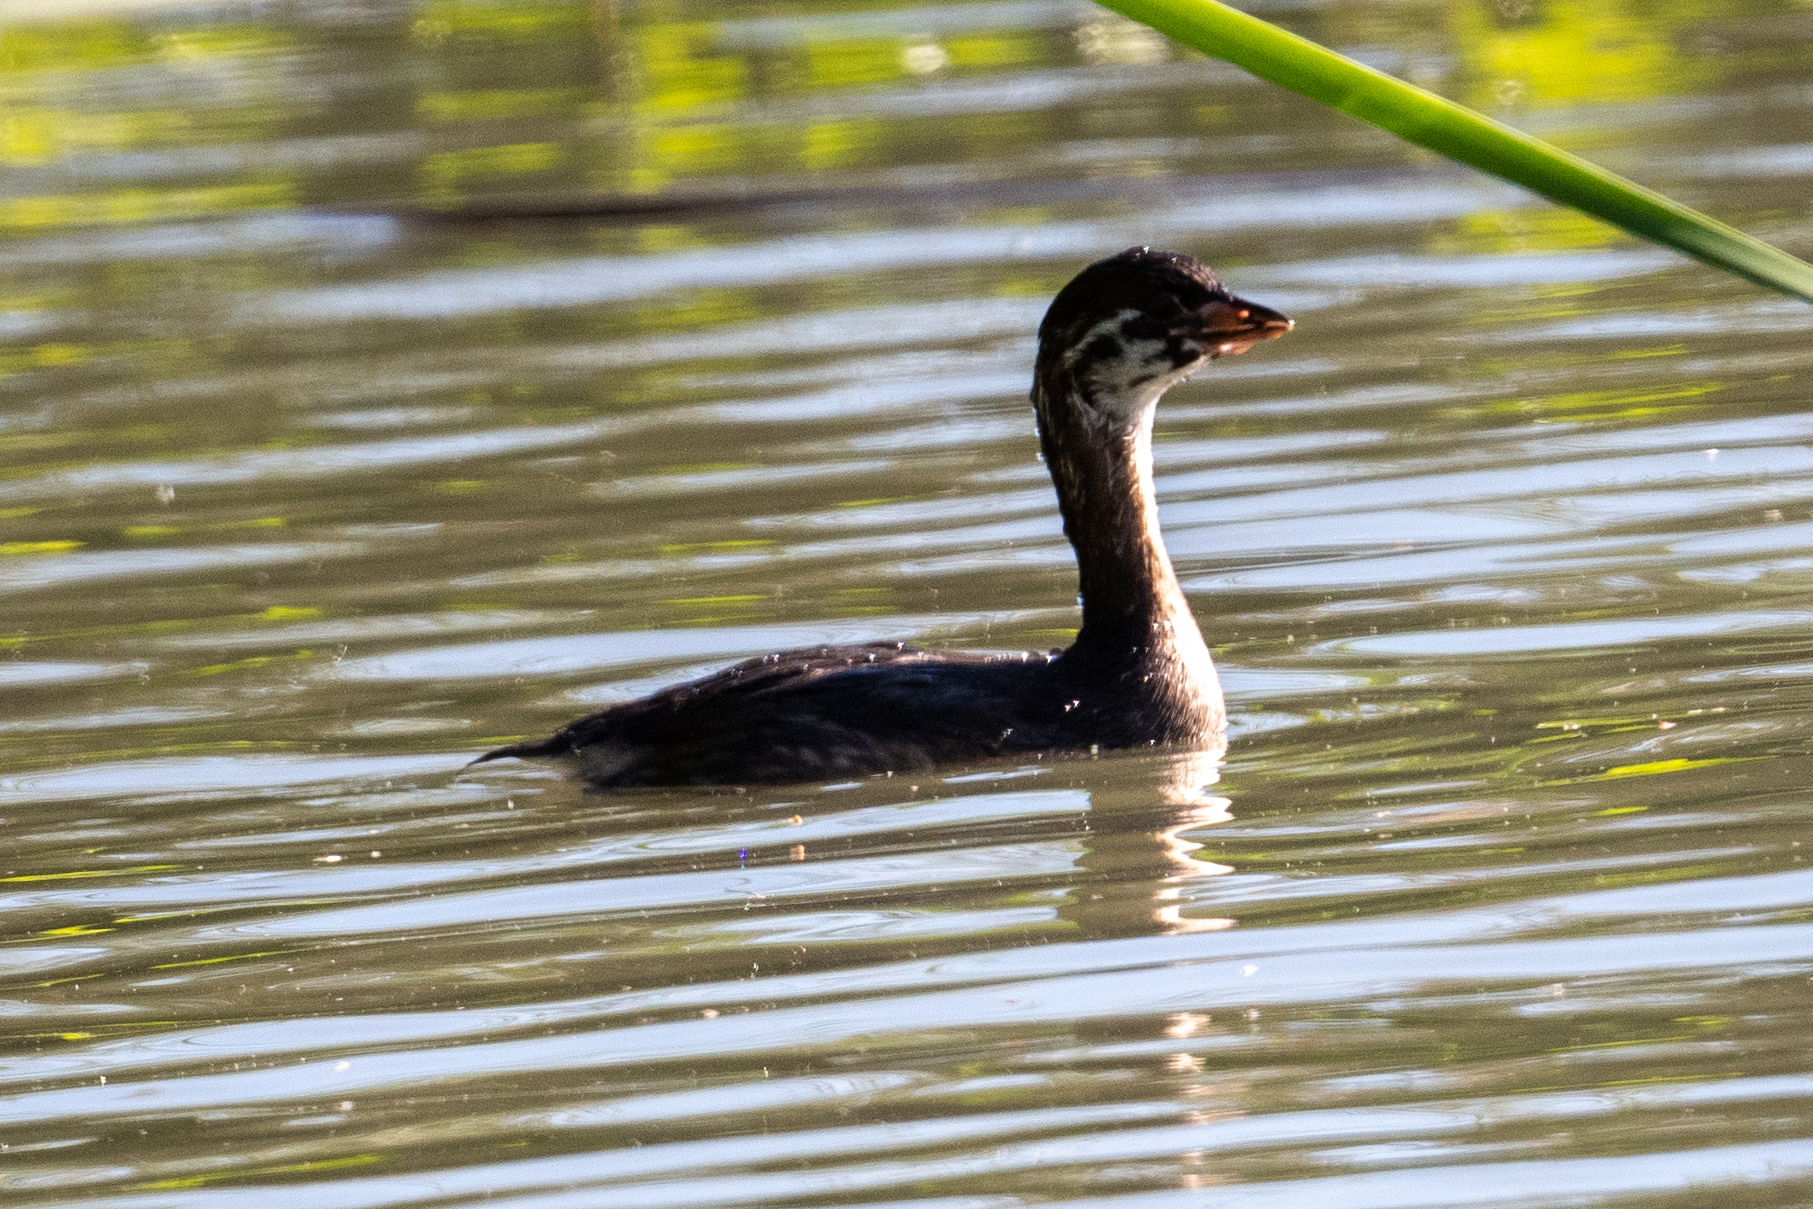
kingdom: Animalia
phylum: Chordata
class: Aves
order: Podicipediformes
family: Podicipedidae
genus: Podilymbus
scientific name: Podilymbus podiceps
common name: Pied-billed grebe
